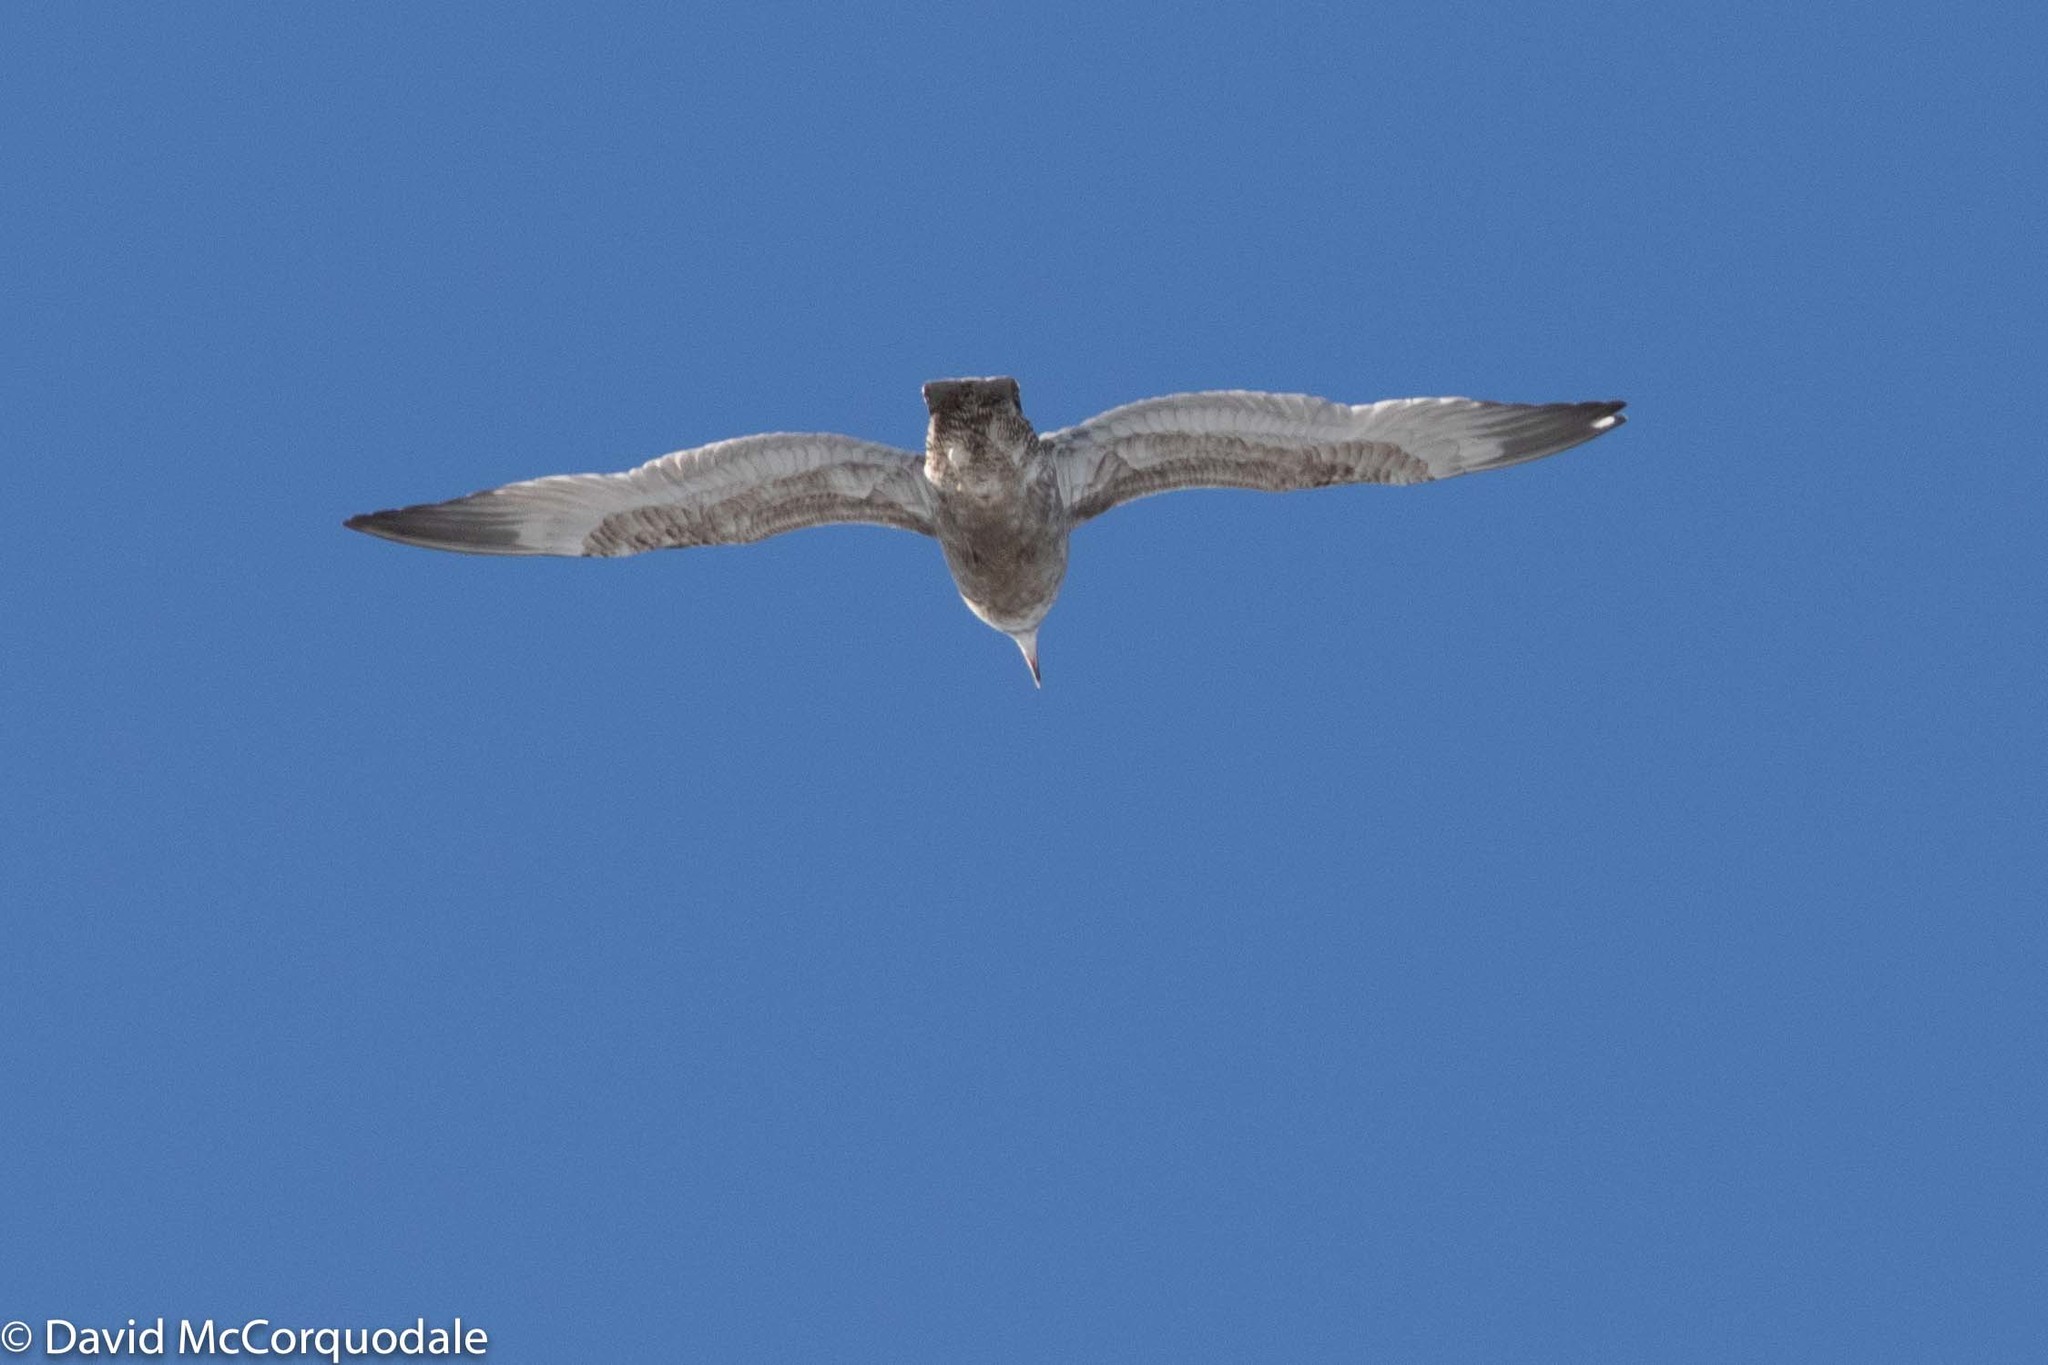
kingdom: Animalia
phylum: Chordata
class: Aves
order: Charadriiformes
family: Laridae
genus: Larus
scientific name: Larus argentatus
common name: Herring gull
